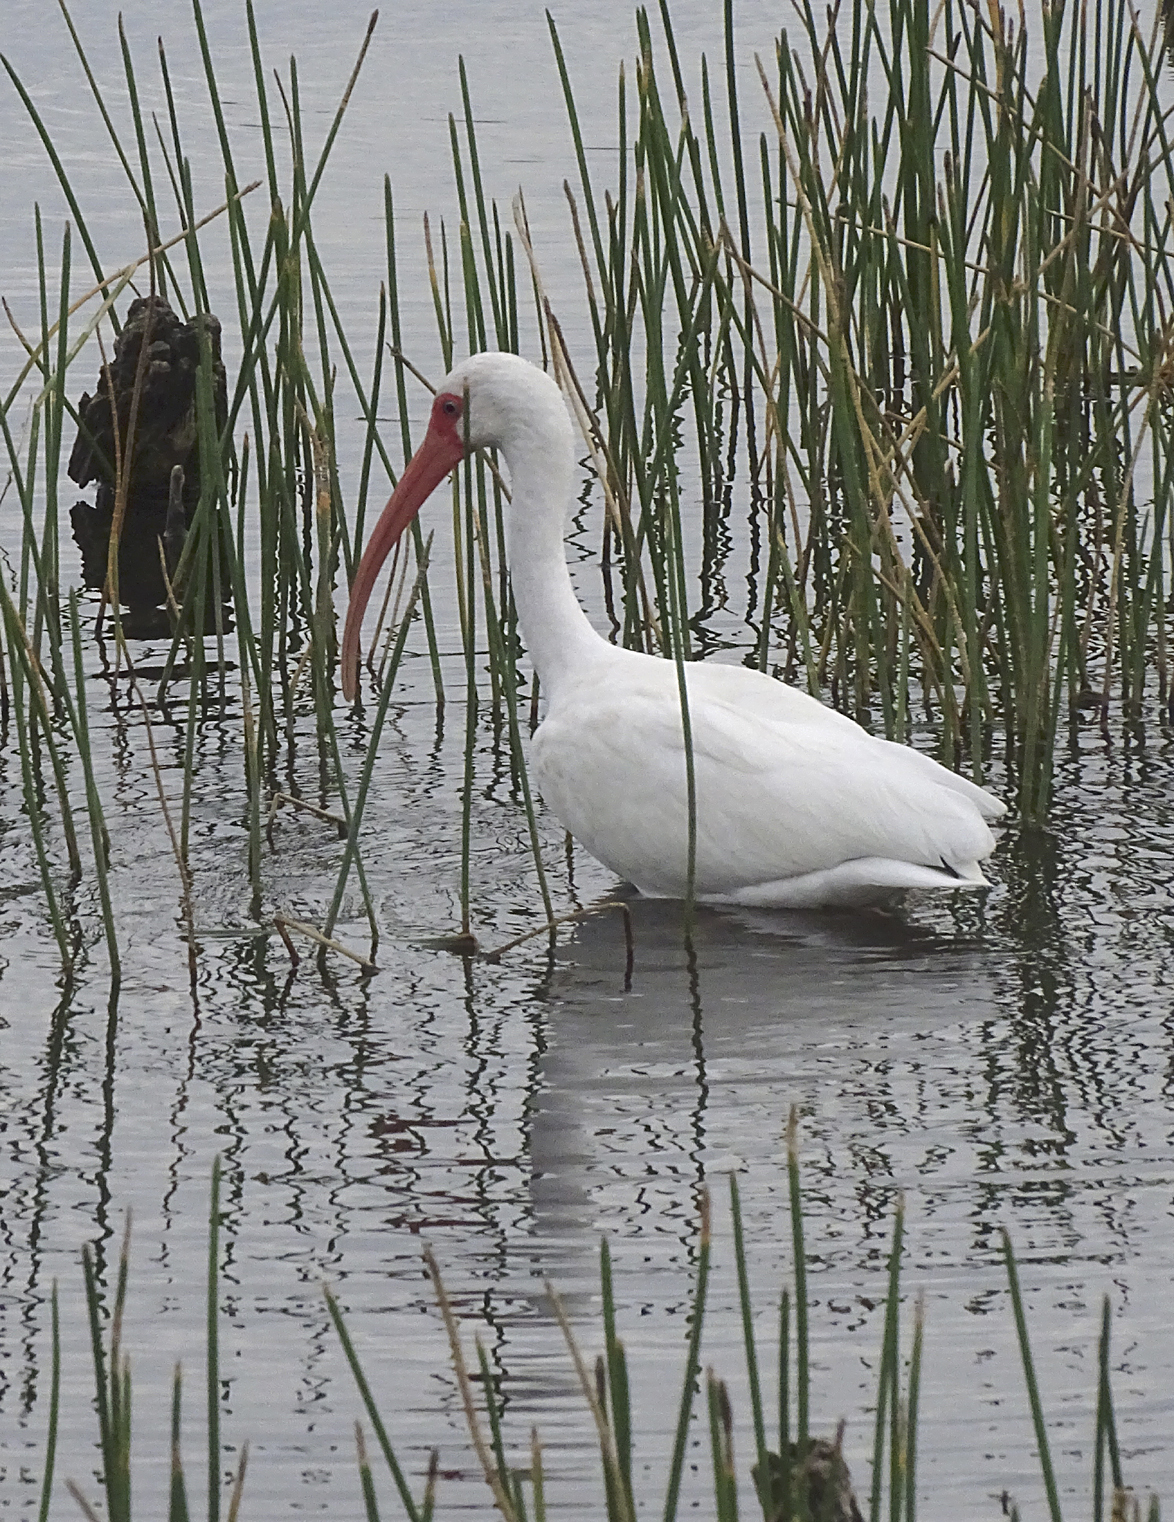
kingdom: Animalia
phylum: Chordata
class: Aves
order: Pelecaniformes
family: Threskiornithidae
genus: Eudocimus
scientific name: Eudocimus albus
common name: White ibis
